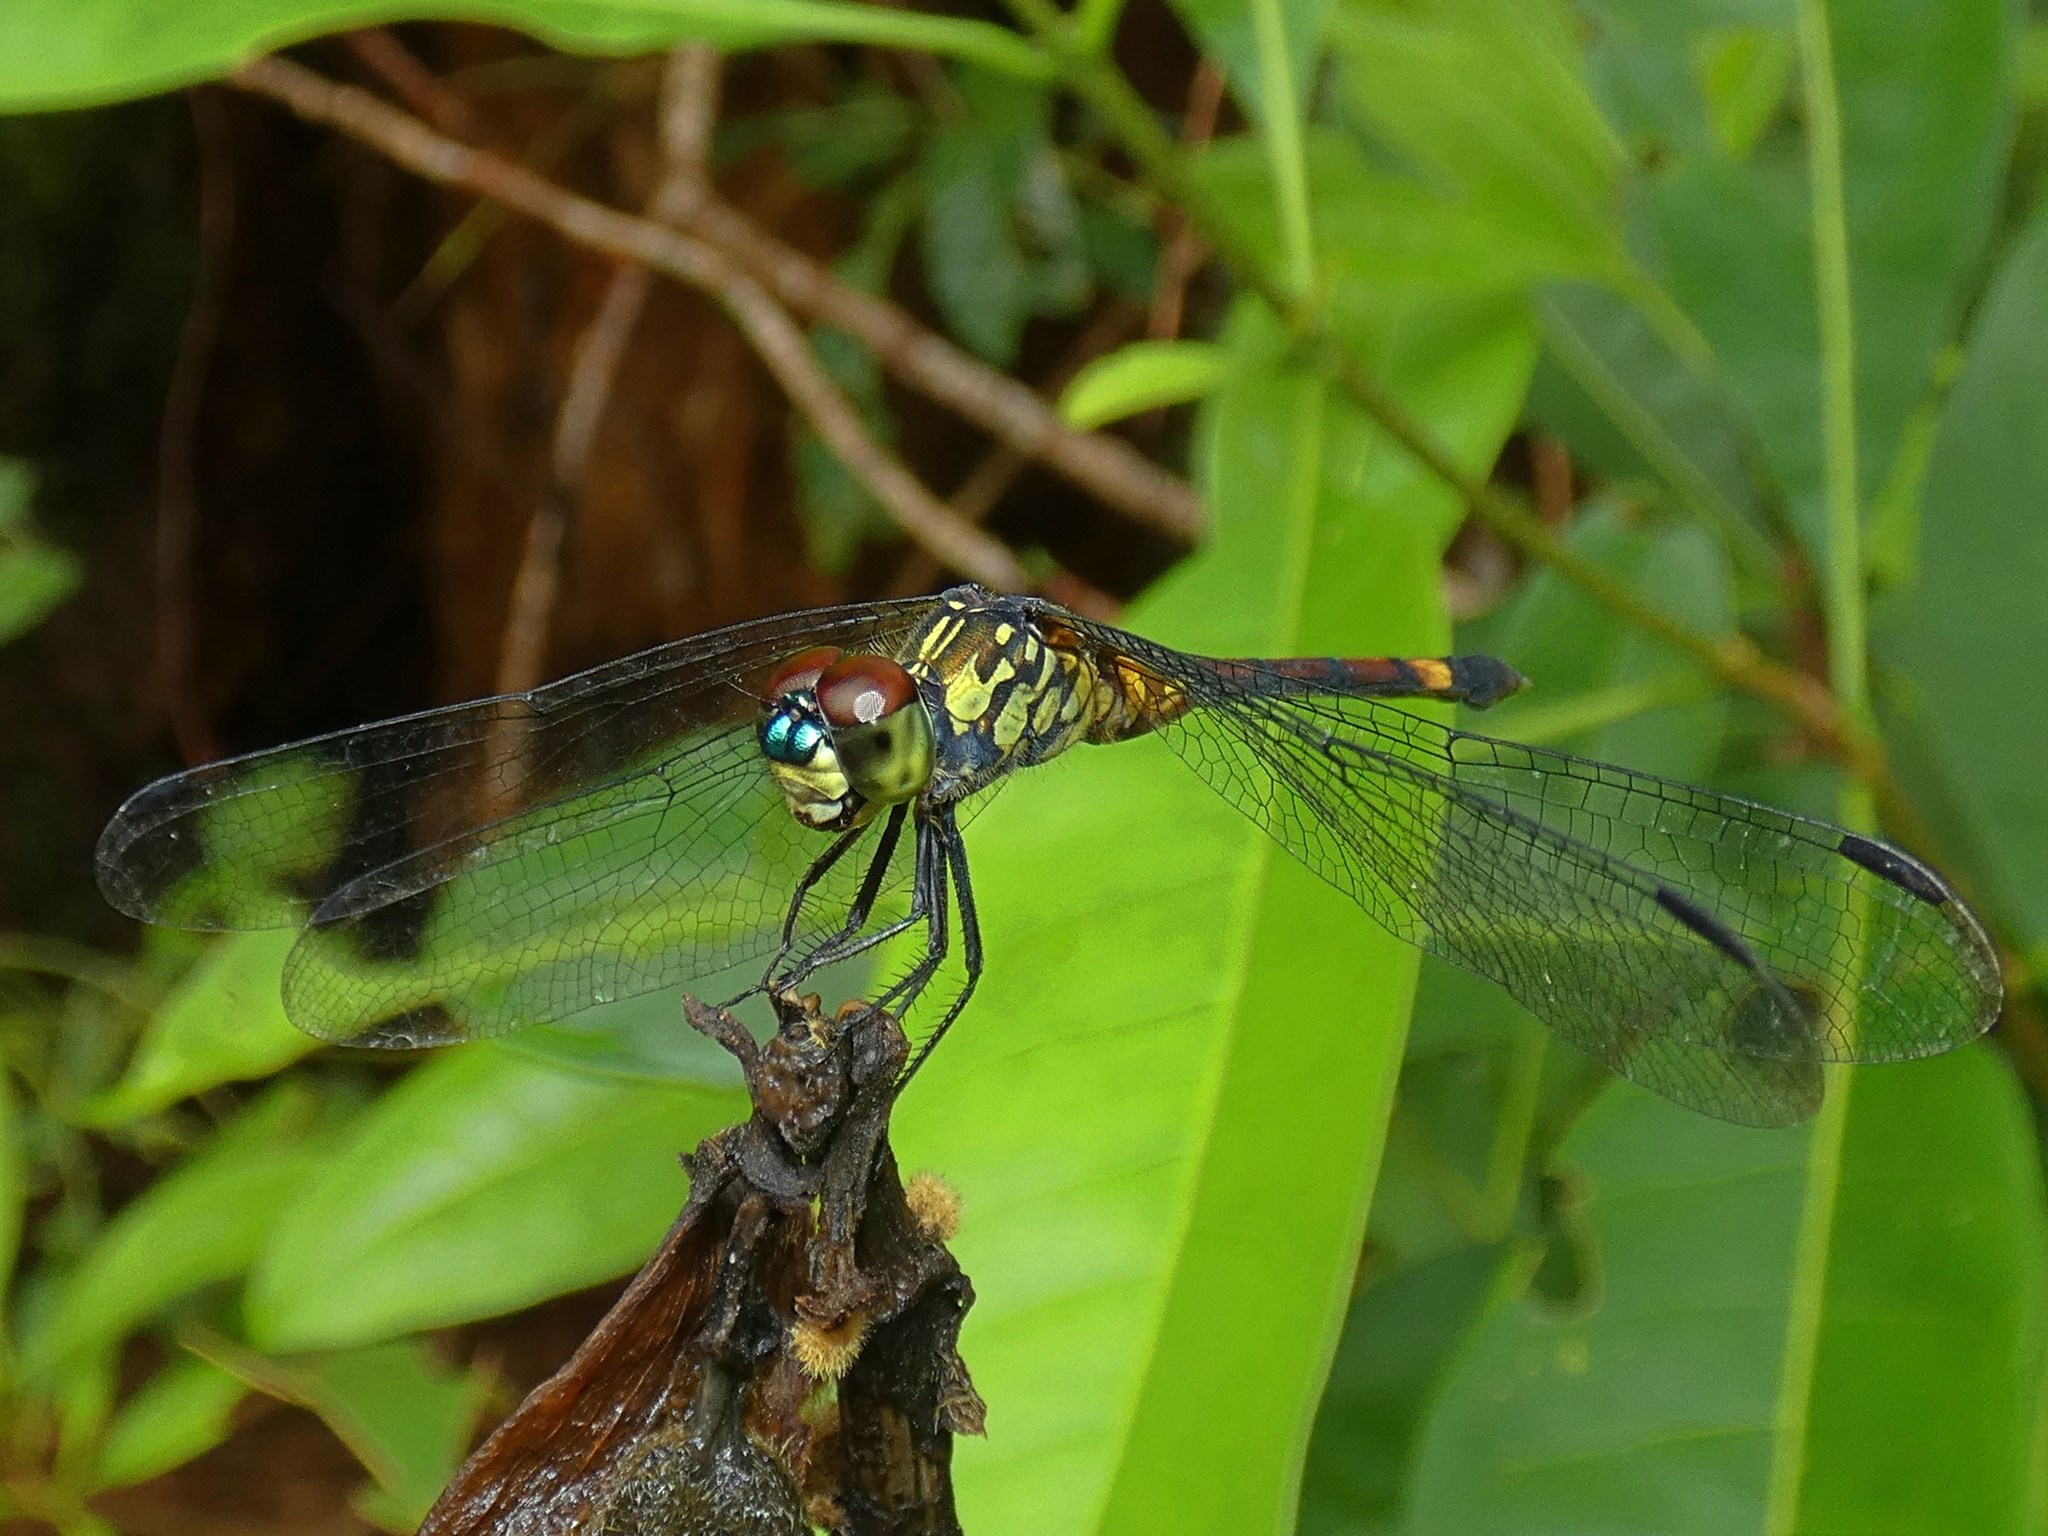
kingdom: Animalia
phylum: Arthropoda
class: Insecta
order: Odonata
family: Libellulidae
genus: Agrionoptera
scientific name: Agrionoptera insignis
